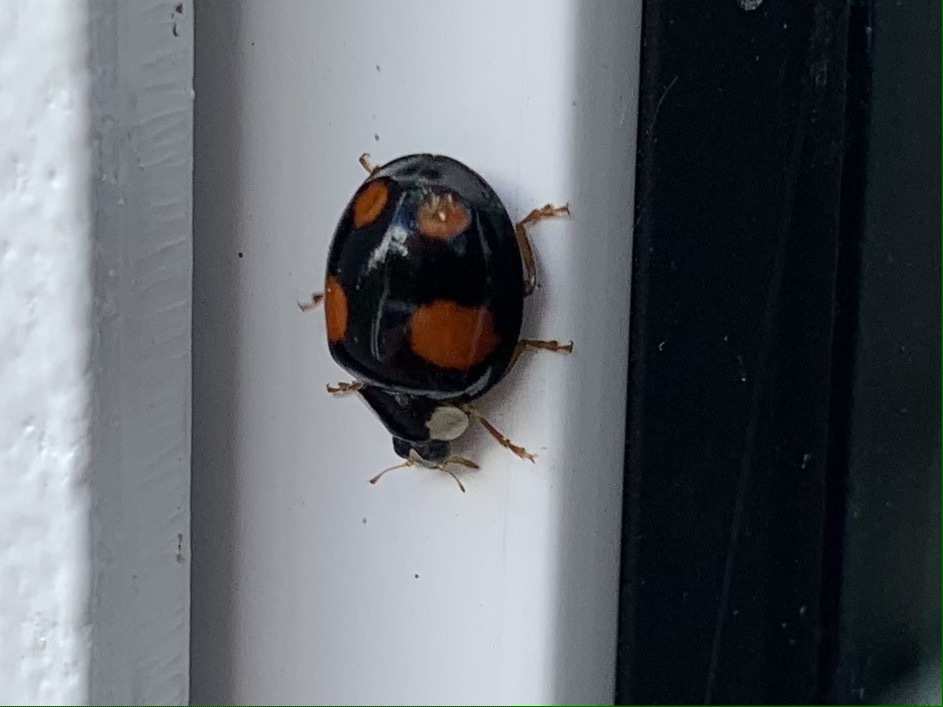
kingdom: Animalia
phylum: Arthropoda
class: Insecta
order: Coleoptera
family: Coccinellidae
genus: Harmonia
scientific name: Harmonia axyridis
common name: Harlequin ladybird
